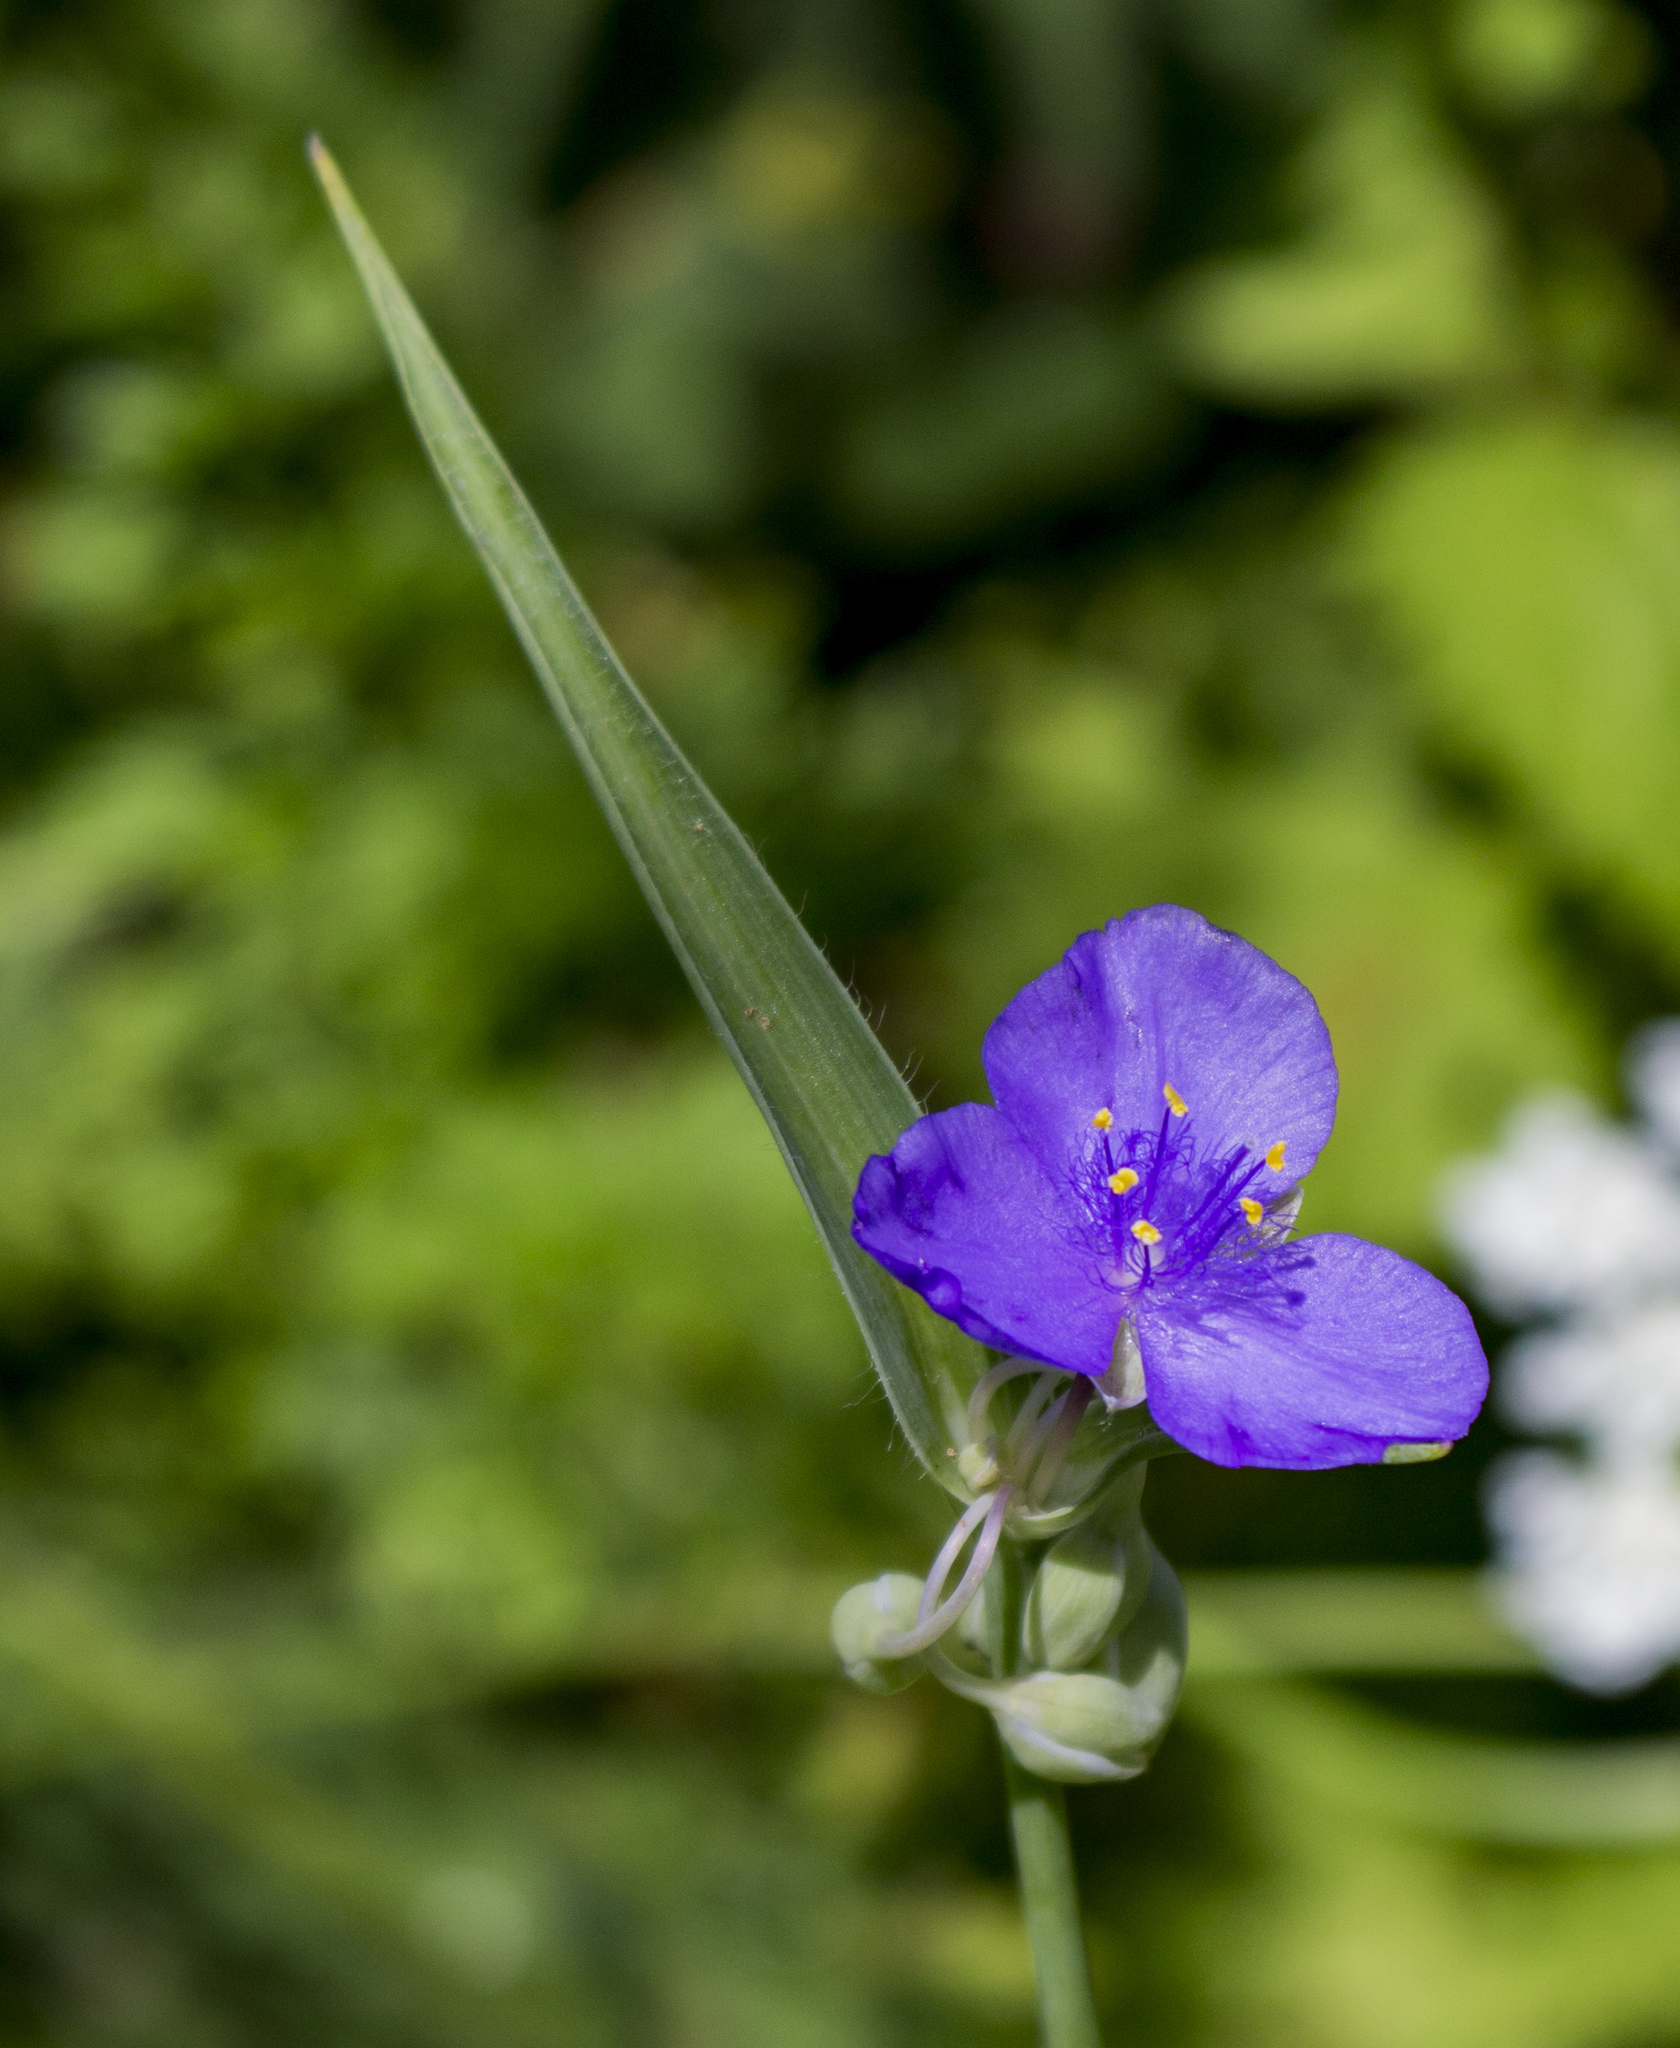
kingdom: Plantae
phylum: Tracheophyta
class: Liliopsida
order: Commelinales
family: Commelinaceae
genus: Tradescantia
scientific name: Tradescantia ohiensis
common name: Ohio spiderwort
